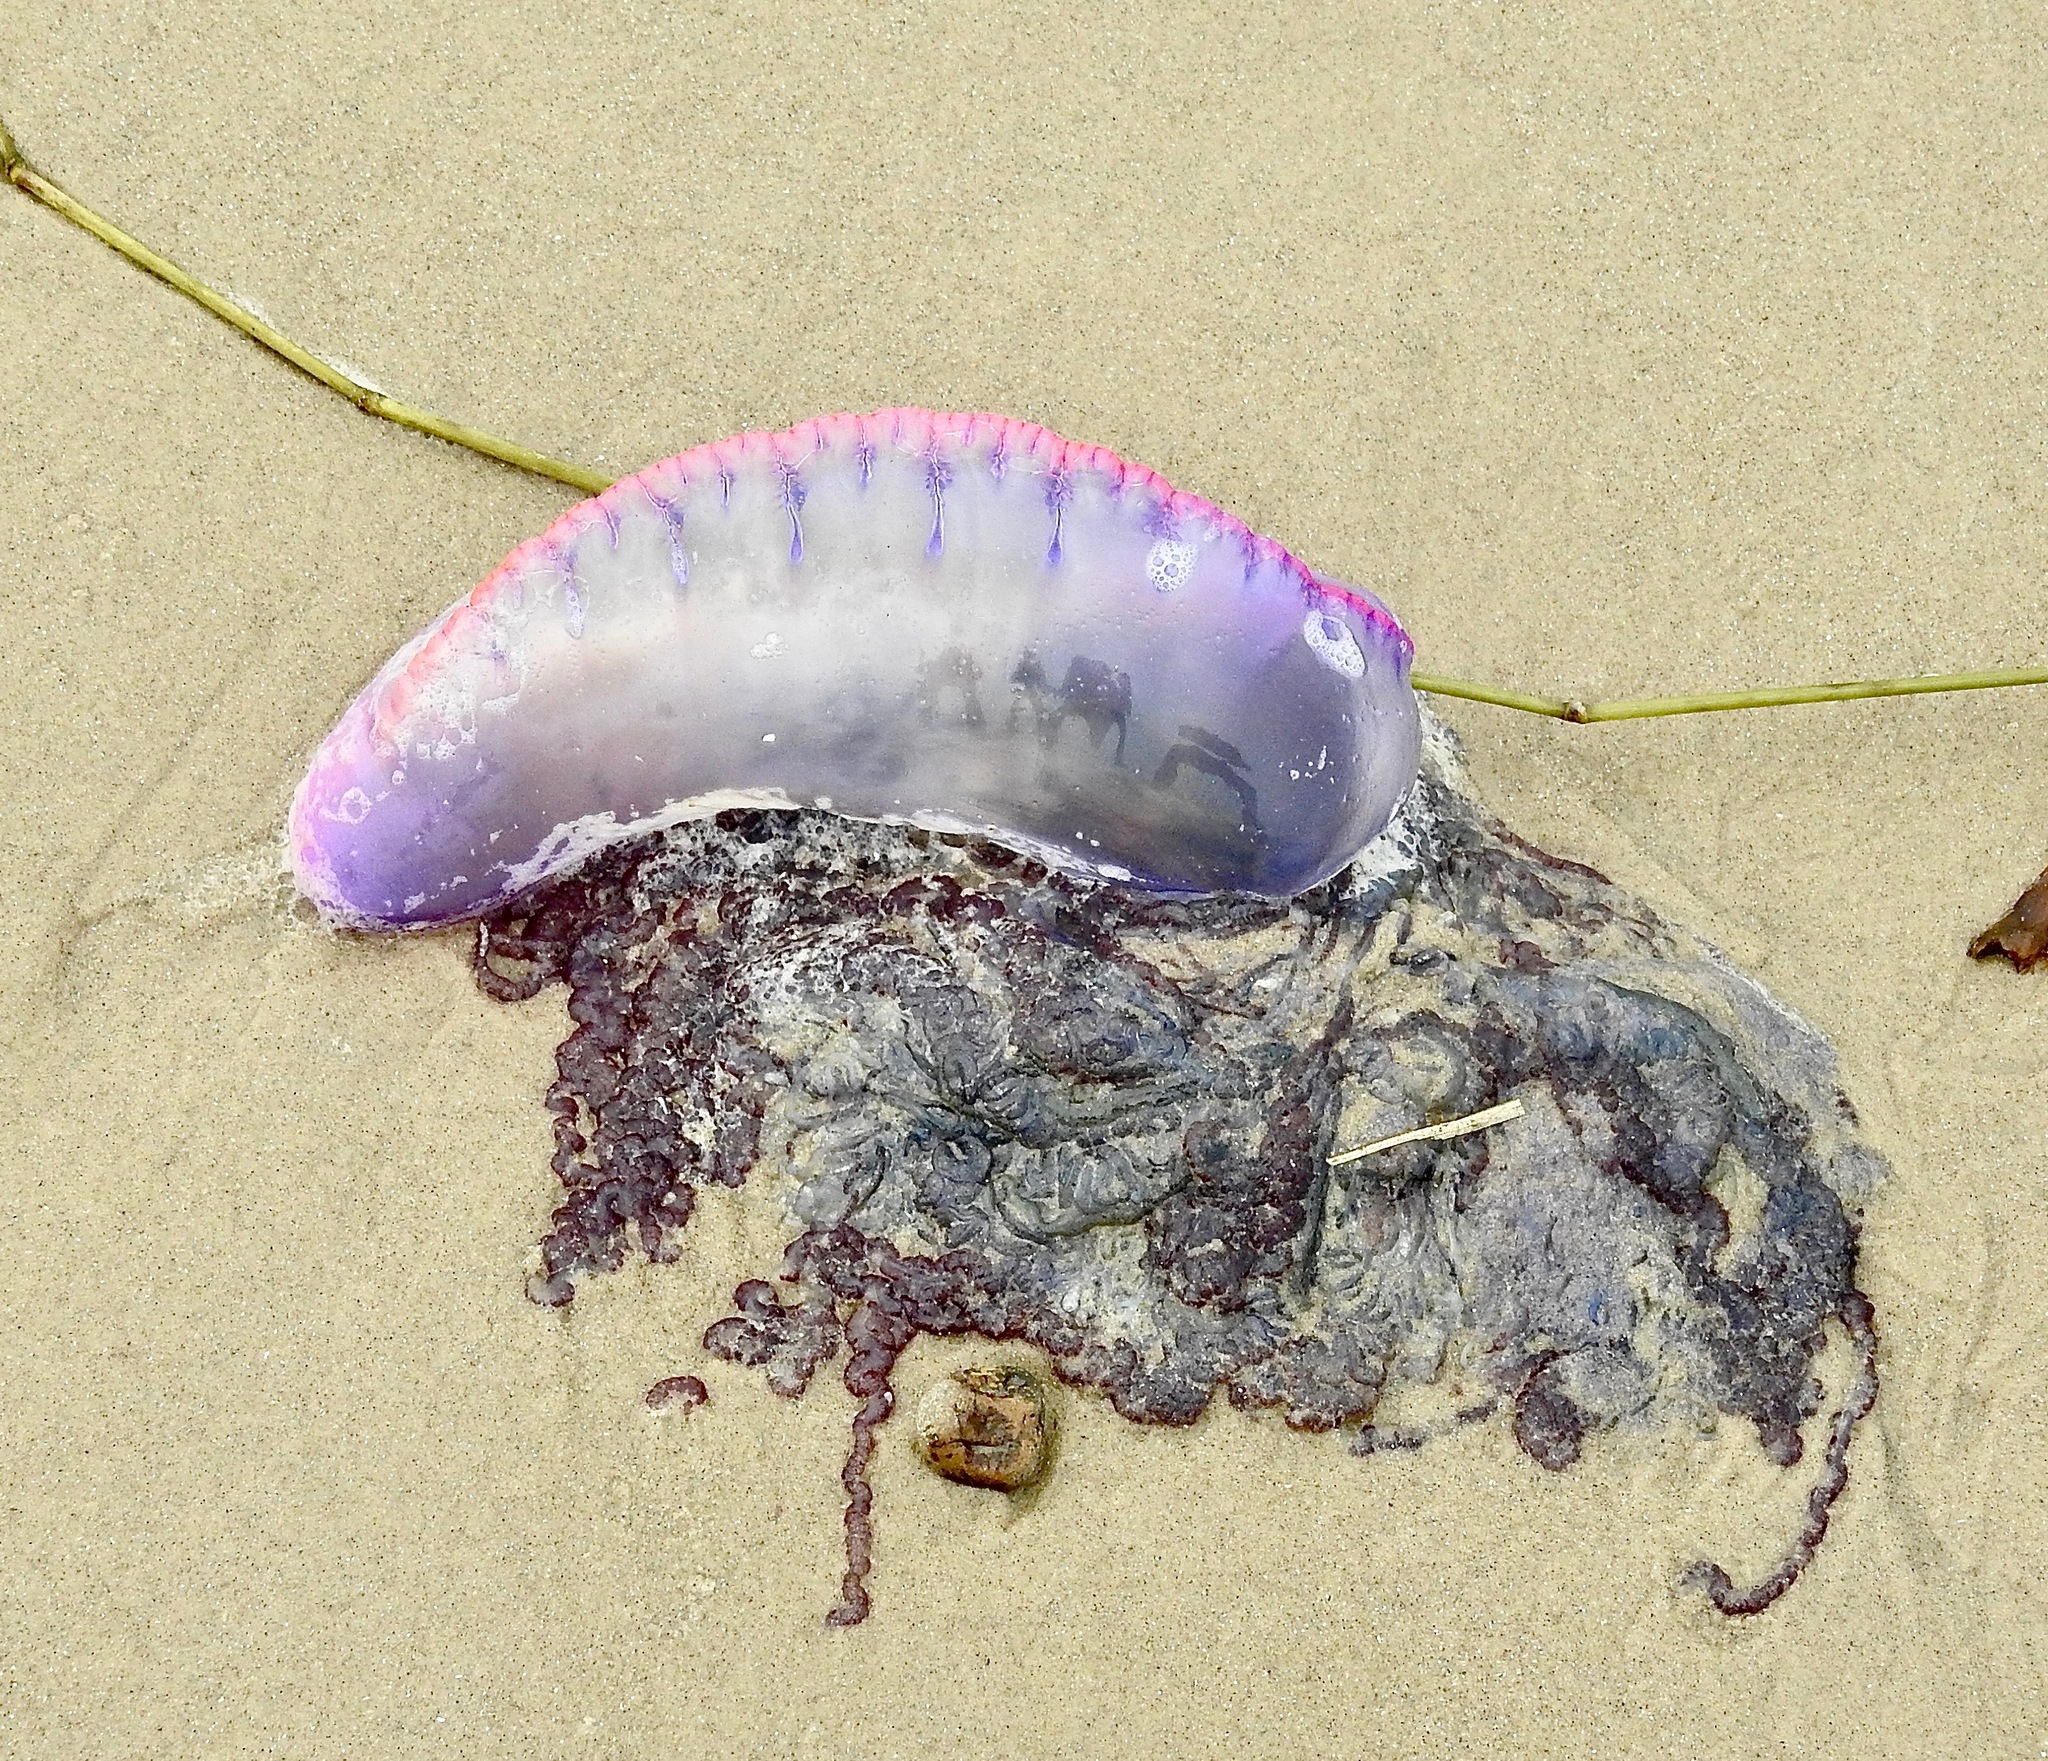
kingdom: Animalia
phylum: Cnidaria
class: Hydrozoa
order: Siphonophorae
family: Physaliidae
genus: Physalia
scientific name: Physalia physalis
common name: Portuguese man-of-war
